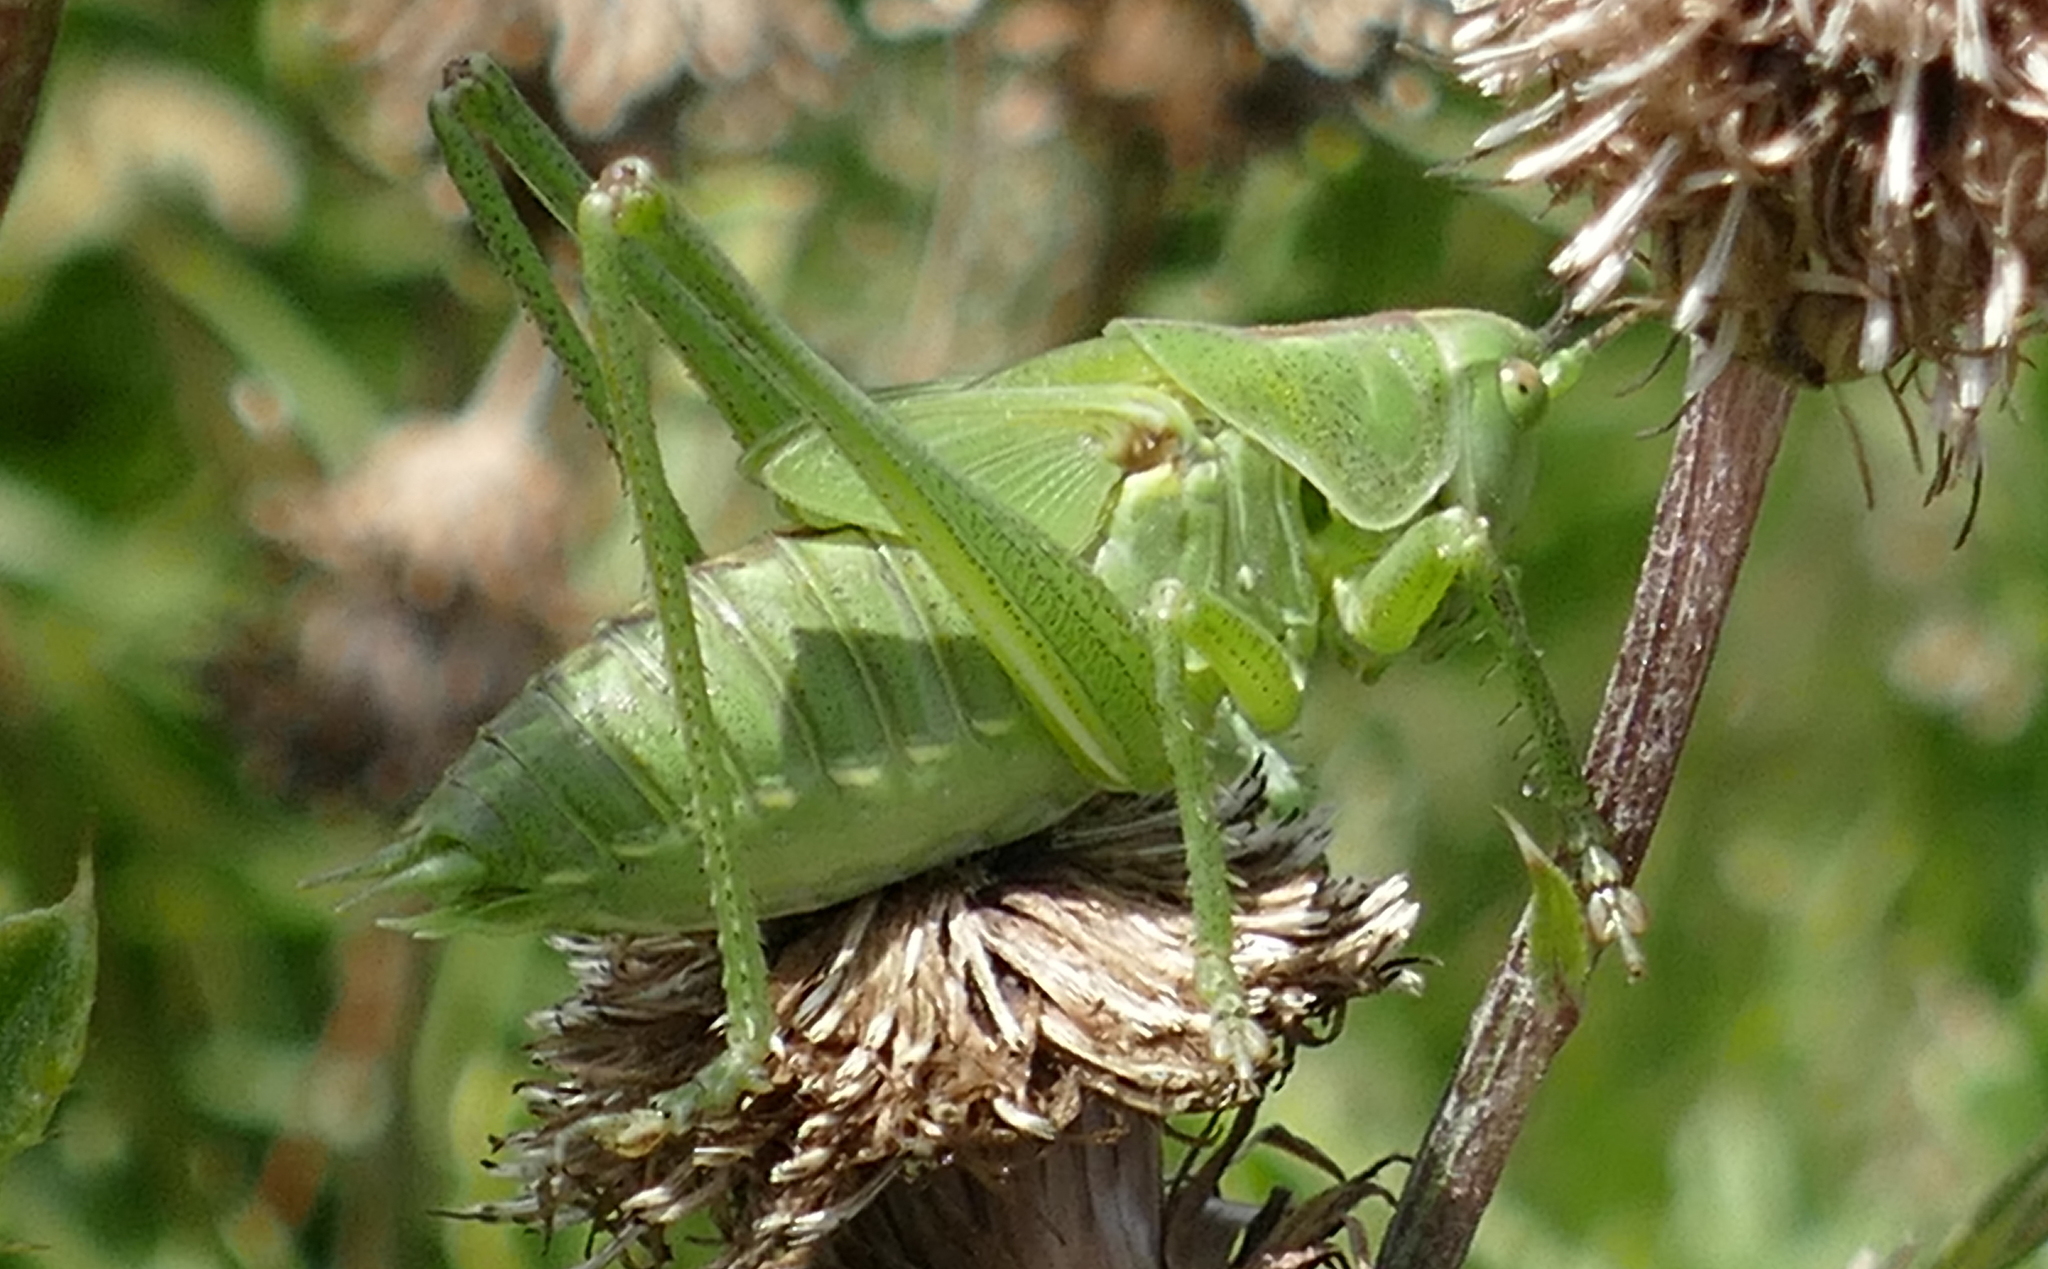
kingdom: Animalia
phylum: Arthropoda
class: Insecta
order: Orthoptera
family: Tettigoniidae
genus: Tettigonia
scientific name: Tettigonia viridissima
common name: Great green bush-cricket
